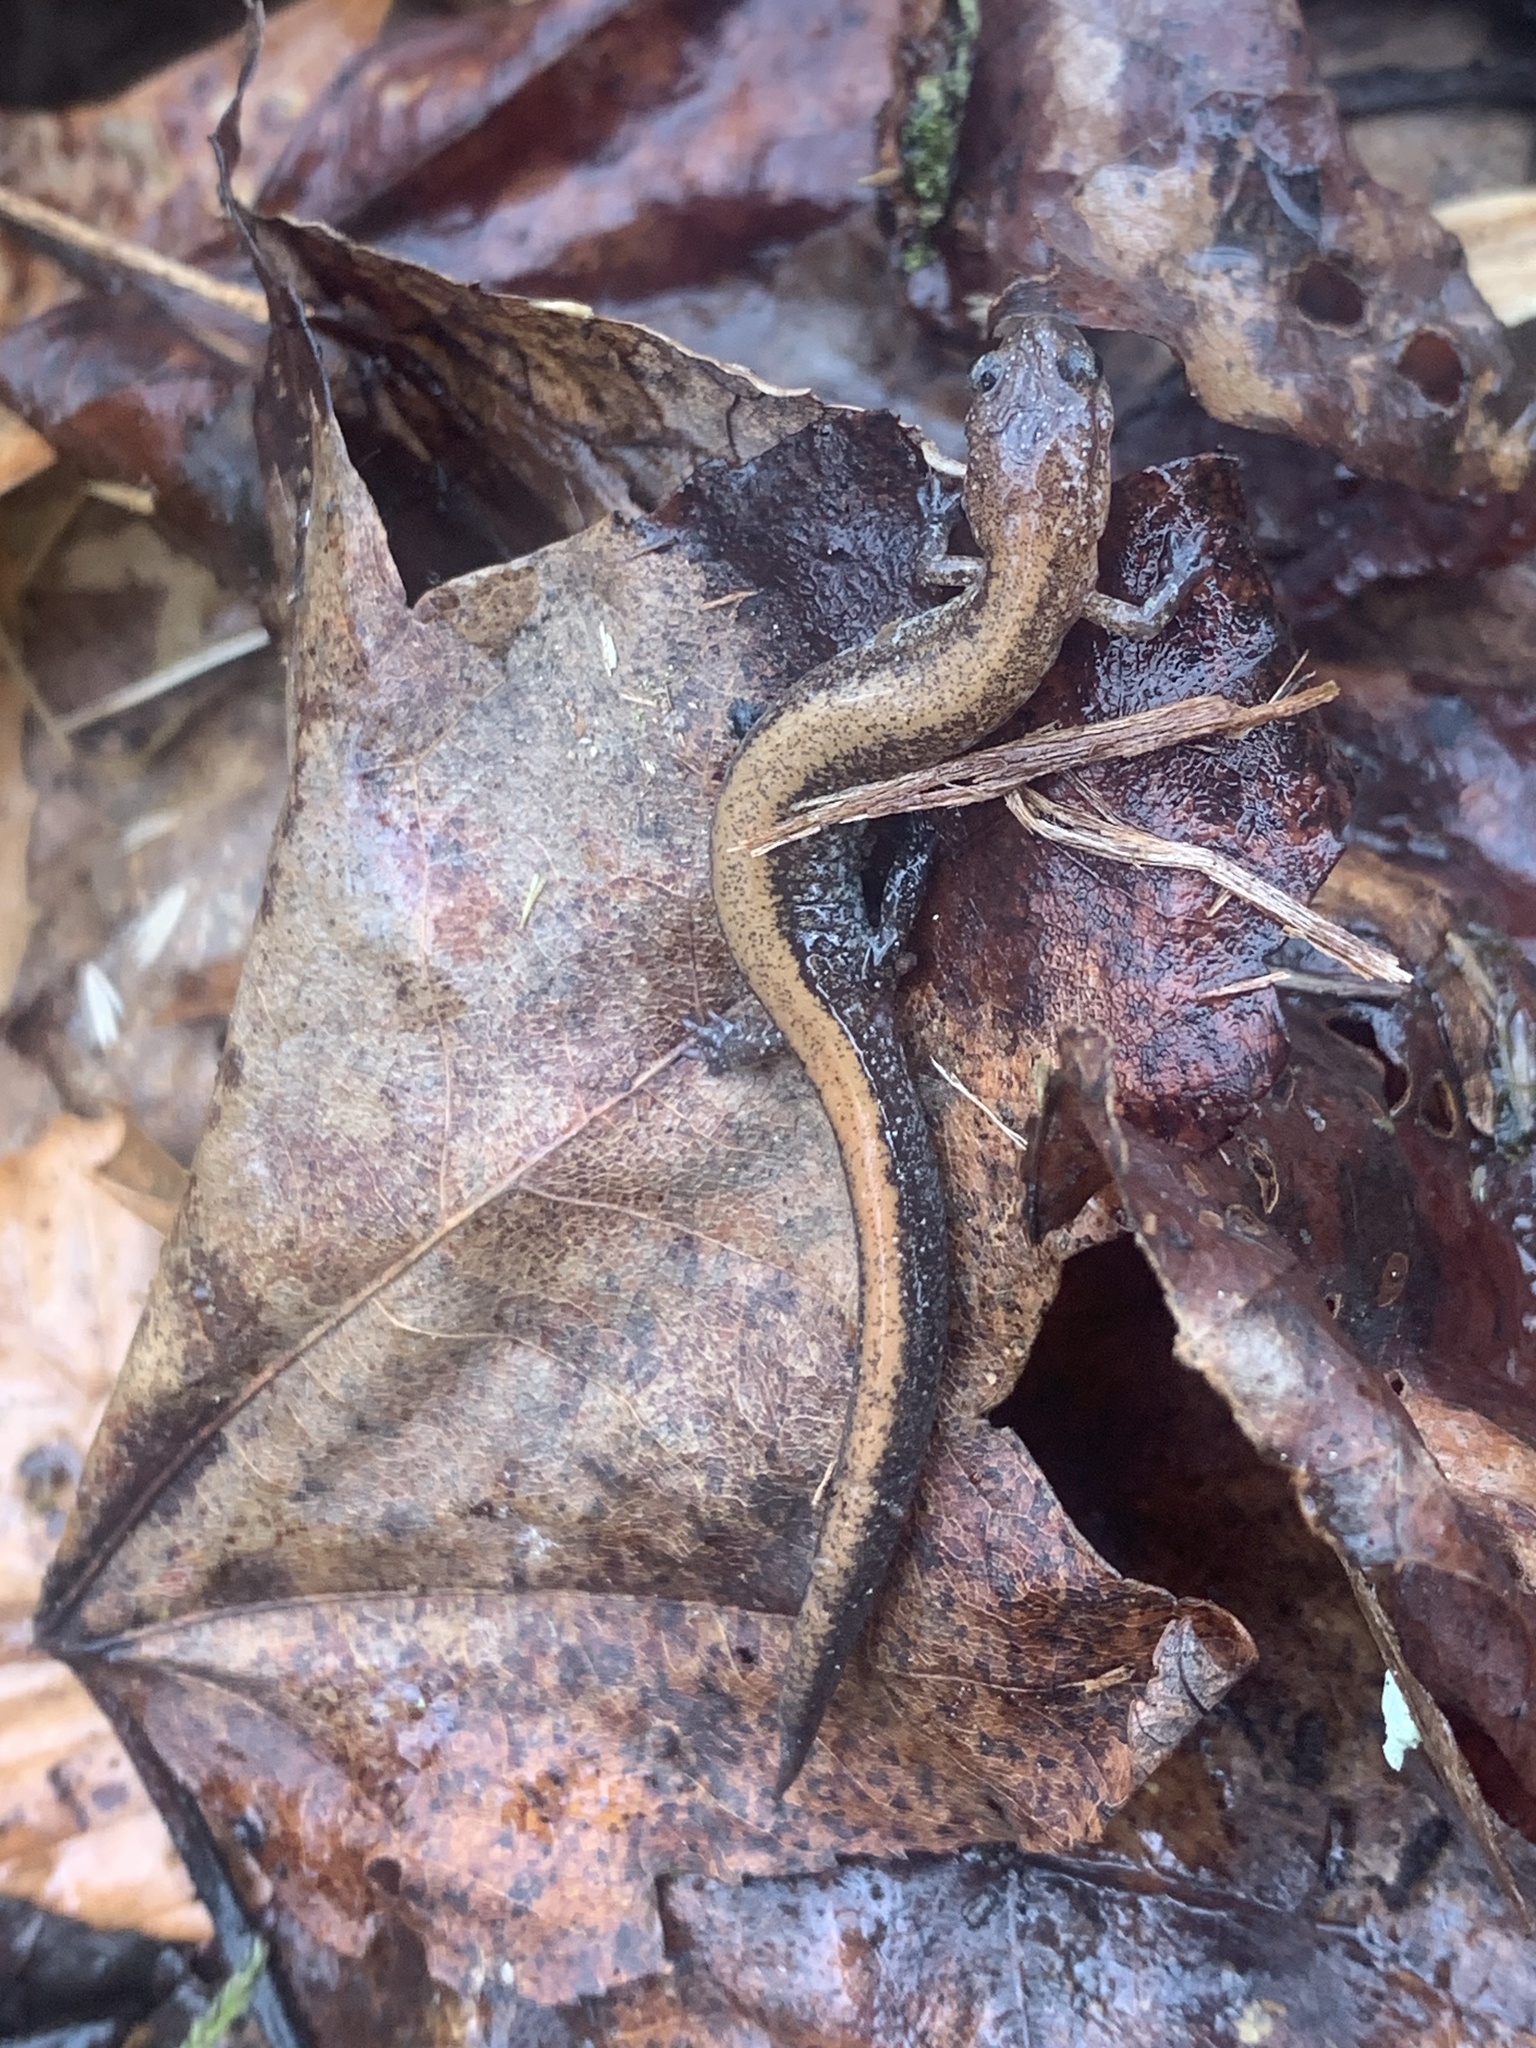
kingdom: Animalia
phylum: Chordata
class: Amphibia
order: Caudata
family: Plethodontidae
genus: Plethodon
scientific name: Plethodon cinereus
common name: Redback salamander
